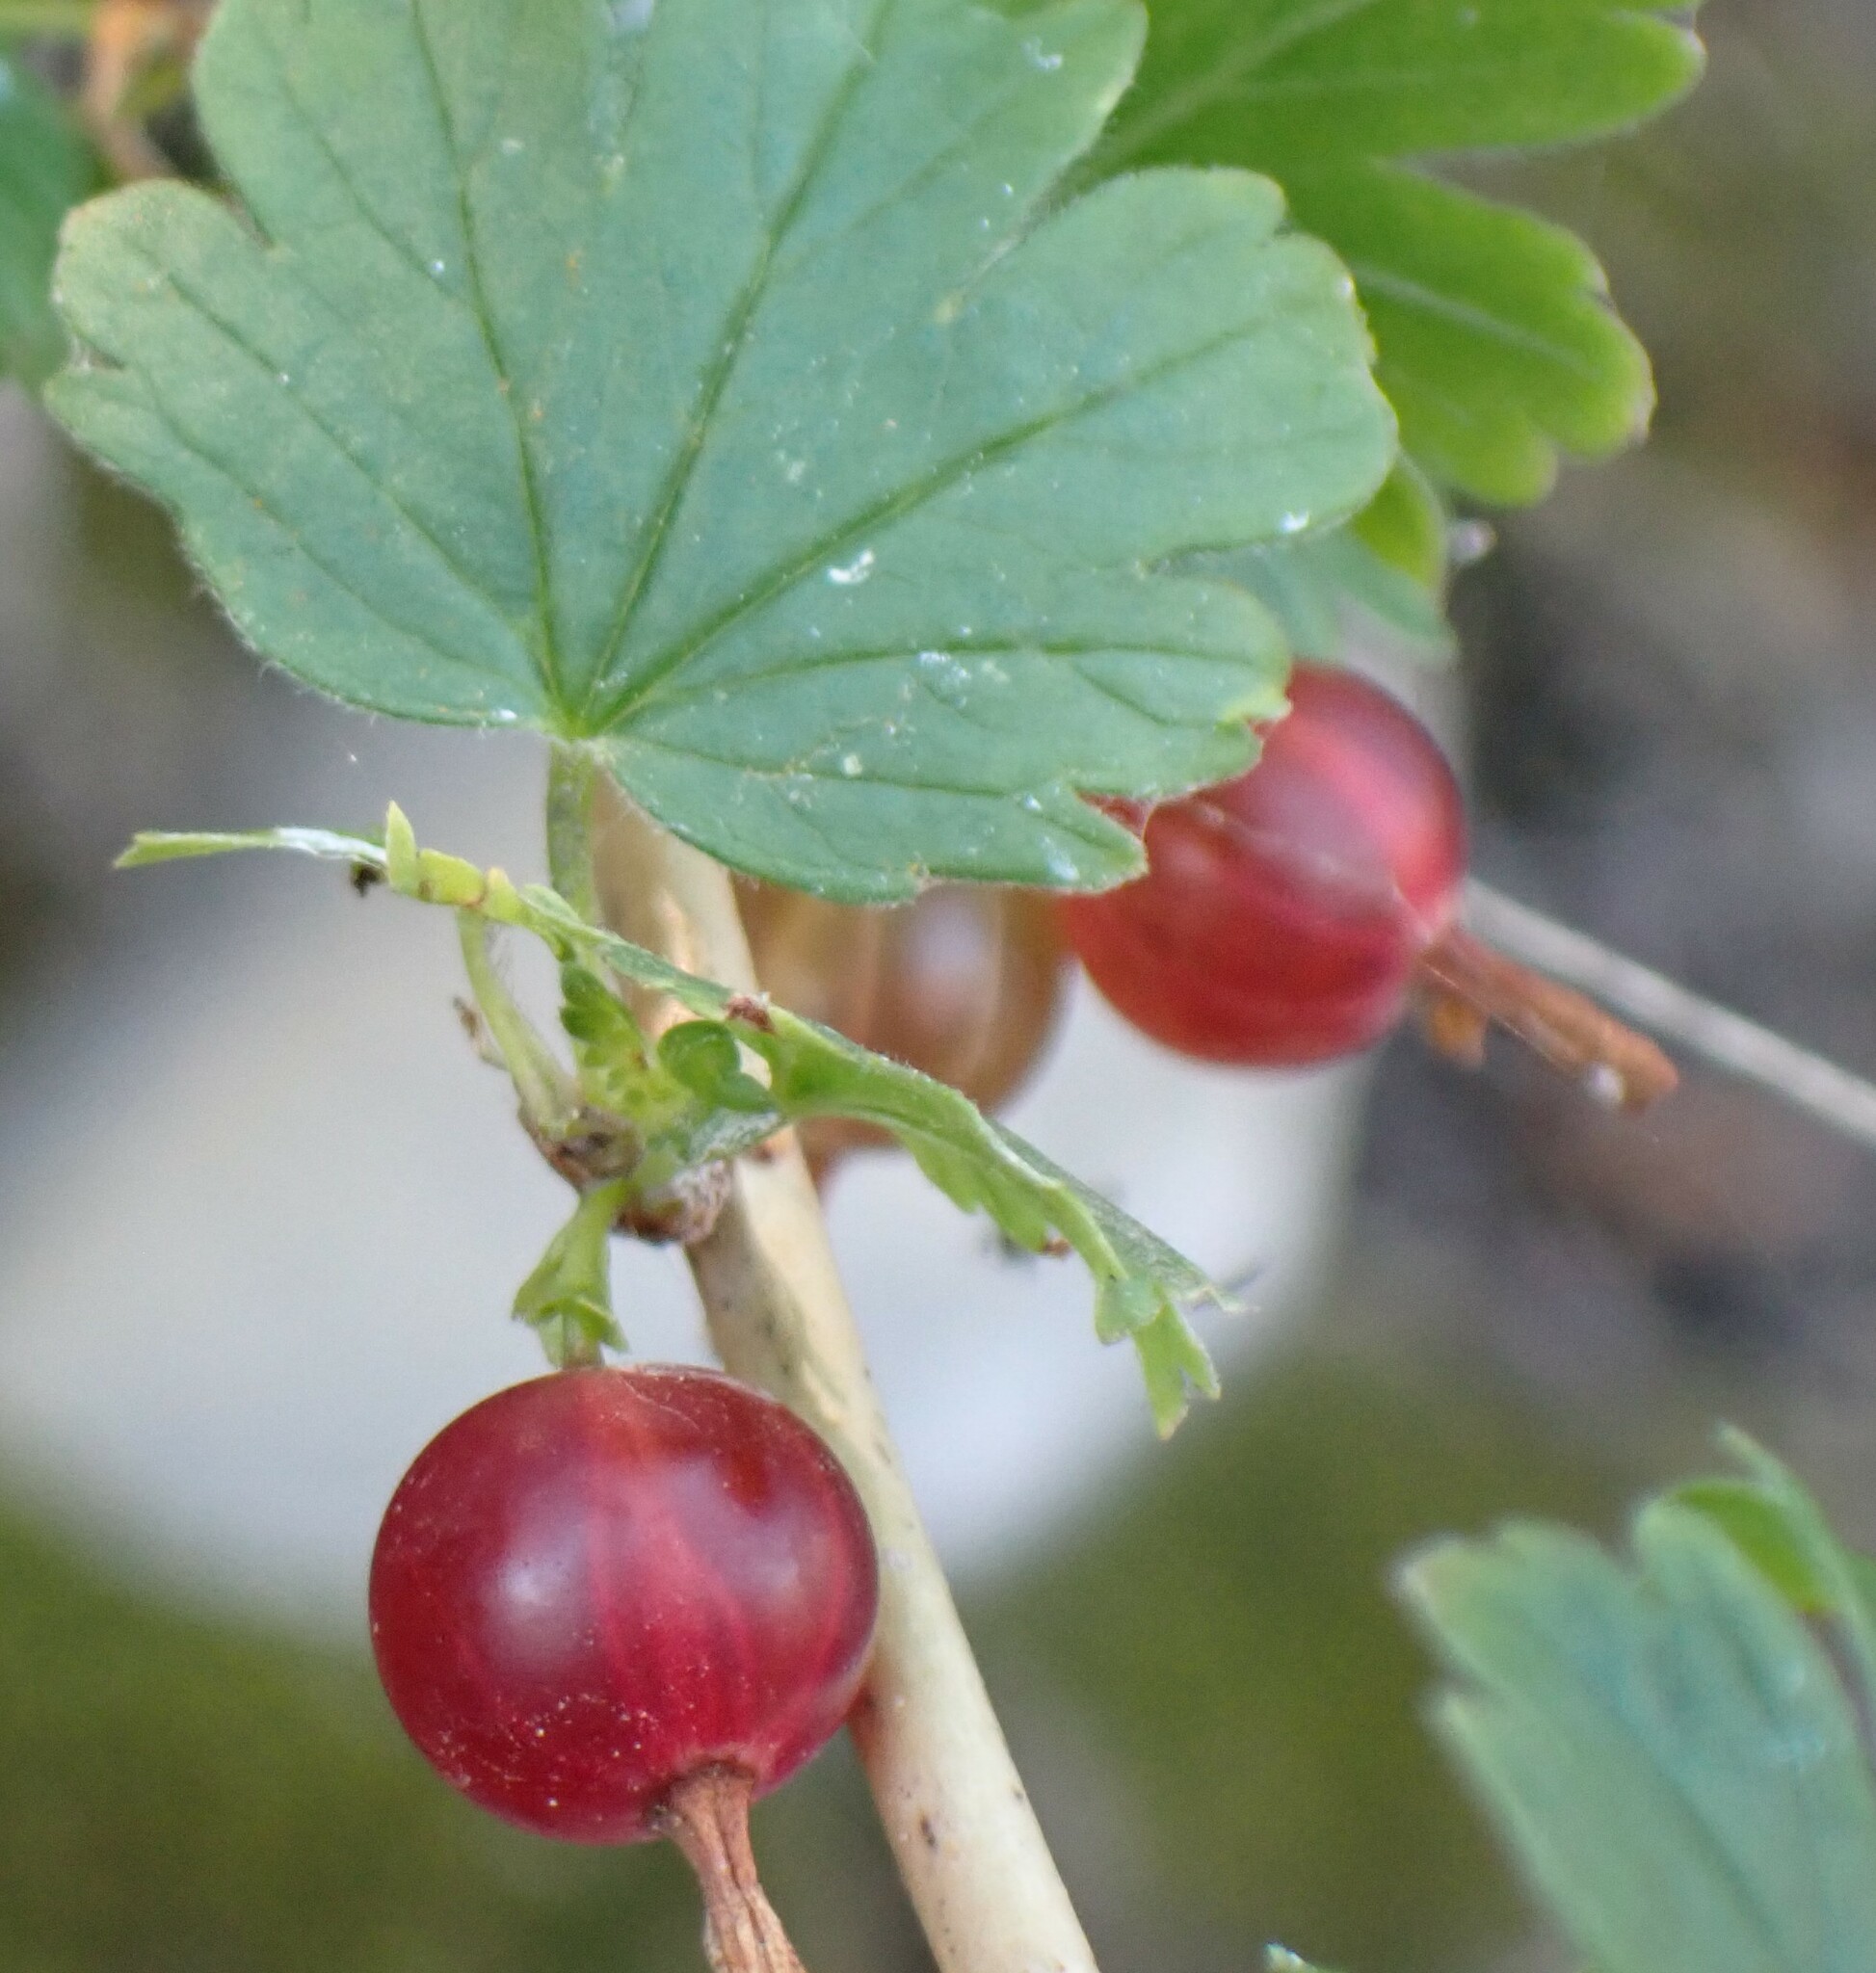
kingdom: Plantae
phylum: Tracheophyta
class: Magnoliopsida
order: Saxifragales
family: Grossulariaceae
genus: Ribes
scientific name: Ribes oxyacanthoides
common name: Northern gooseberry
